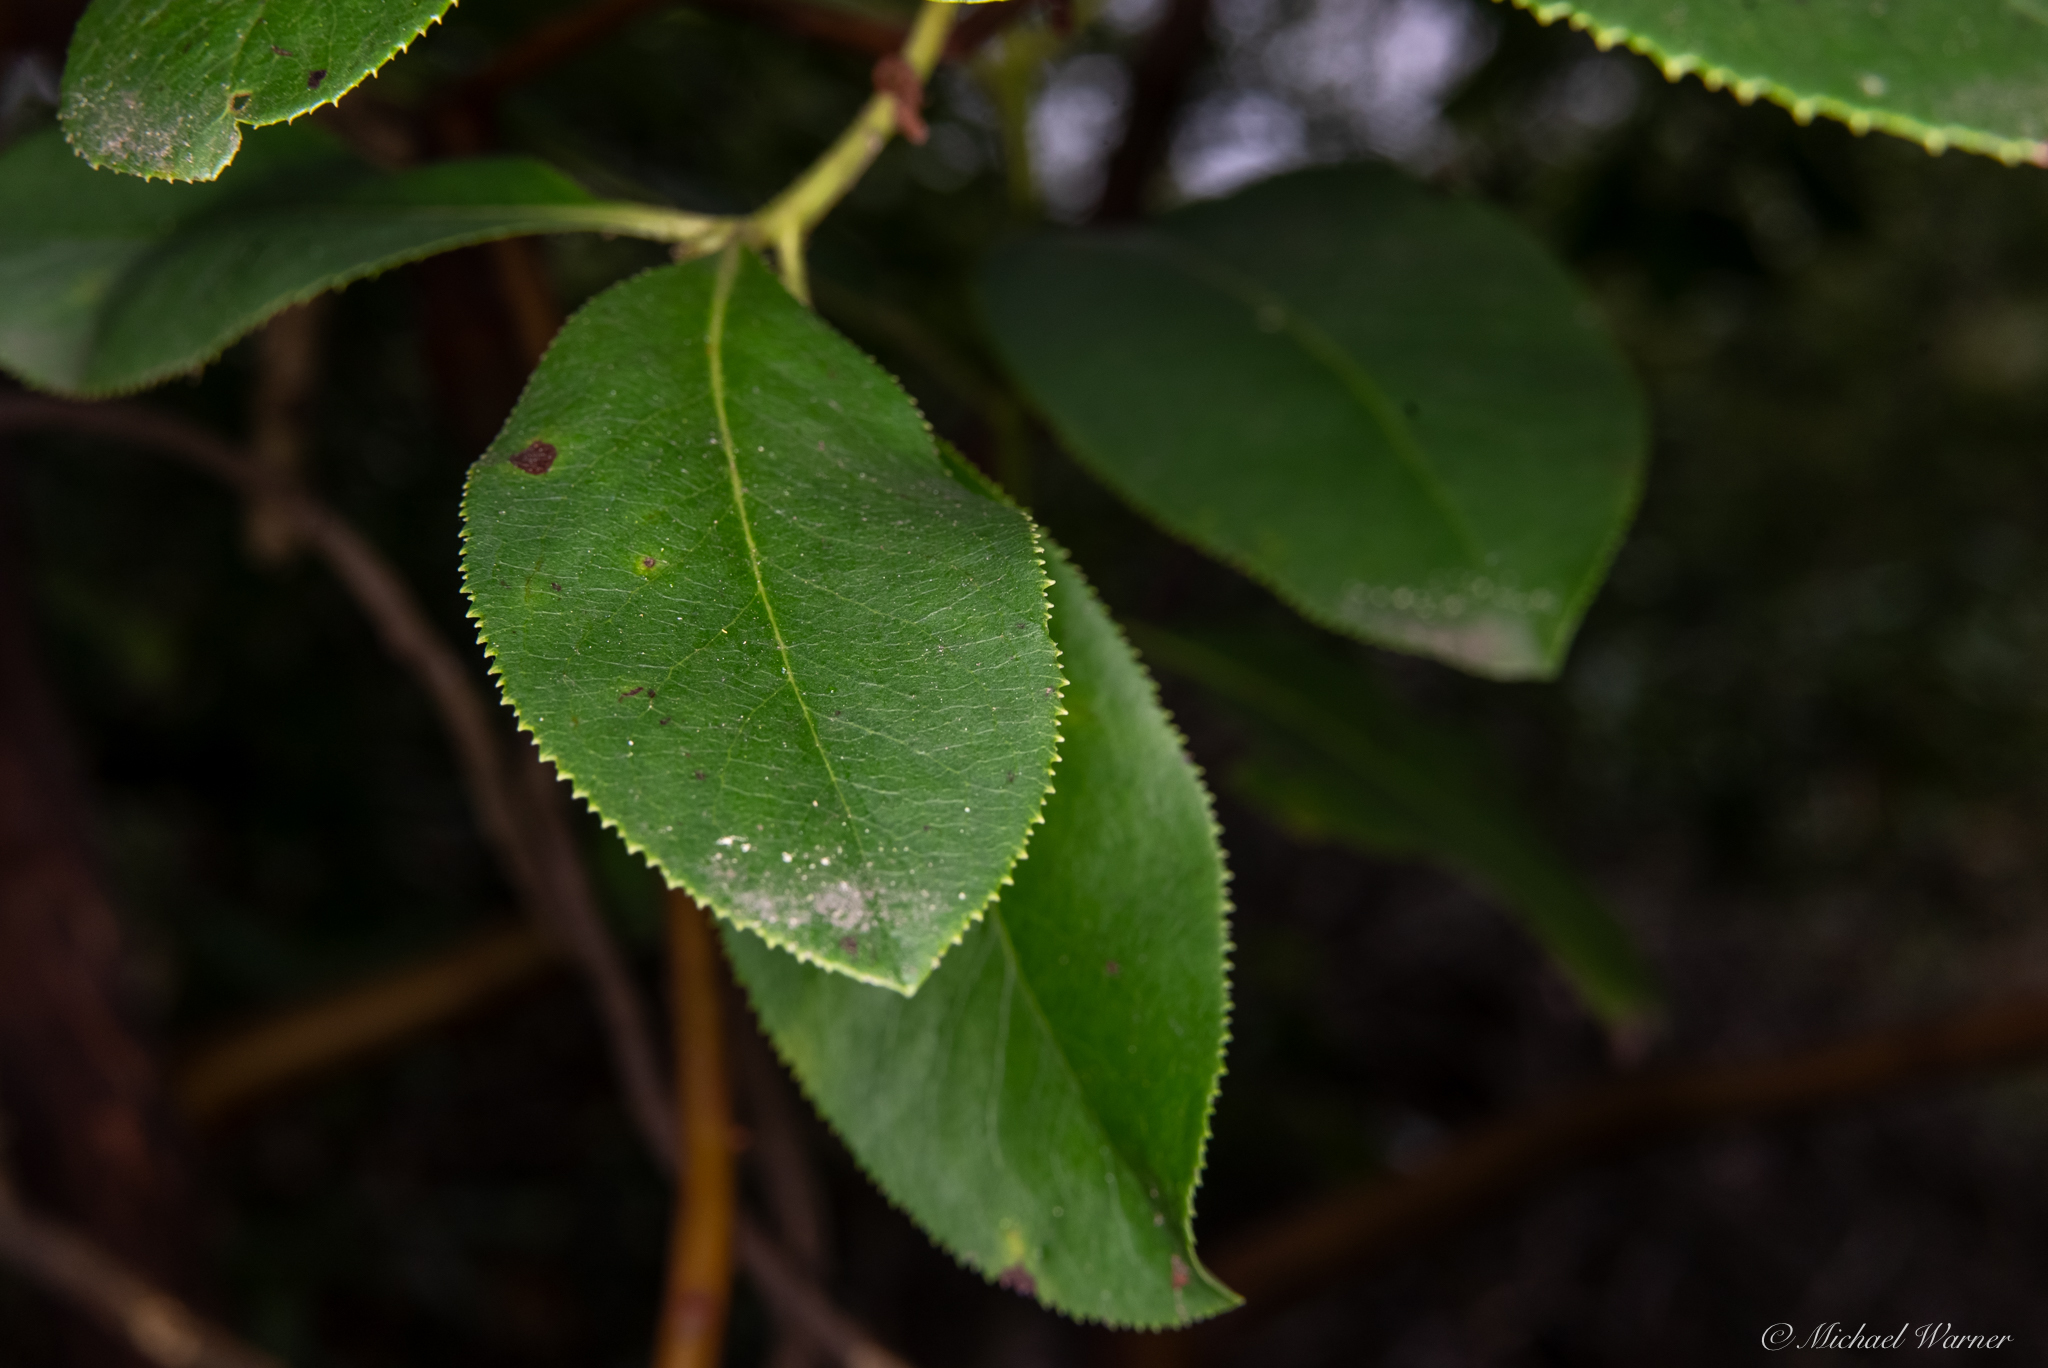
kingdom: Plantae
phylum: Tracheophyta
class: Magnoliopsida
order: Ericales
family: Ericaceae
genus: Arbutus
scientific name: Arbutus menziesii
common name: Pacific madrone
